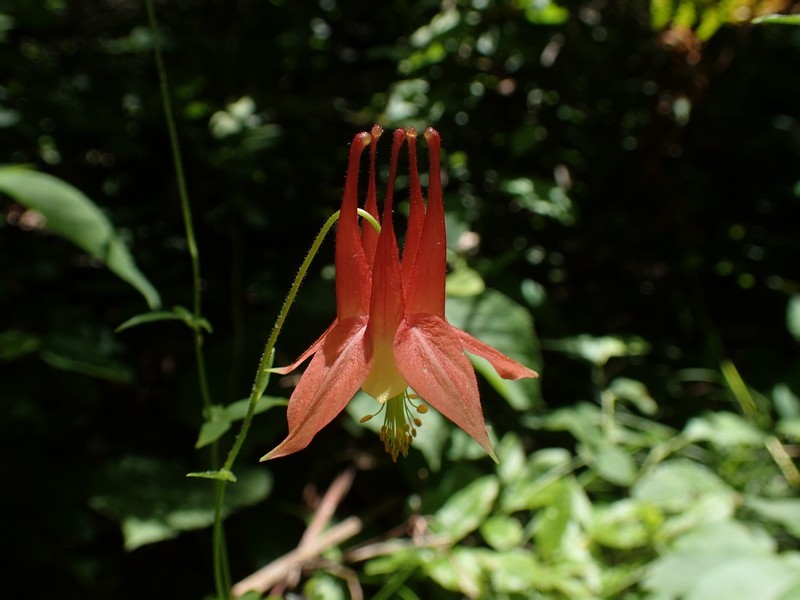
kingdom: Plantae
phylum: Tracheophyta
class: Magnoliopsida
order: Ranunculales
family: Ranunculaceae
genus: Aquilegia
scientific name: Aquilegia canadensis
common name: American columbine
